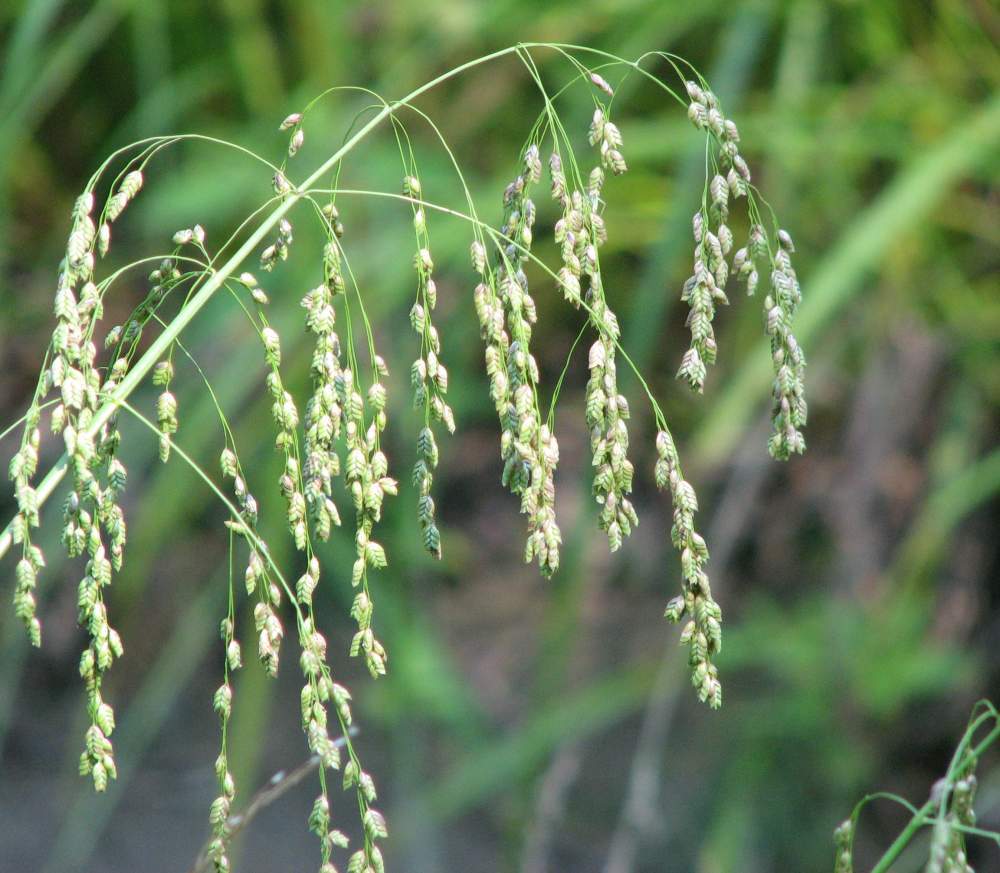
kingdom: Plantae
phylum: Tracheophyta
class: Liliopsida
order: Poales
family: Poaceae
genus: Glyceria
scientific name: Glyceria canadensis
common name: Canada mannagrass
